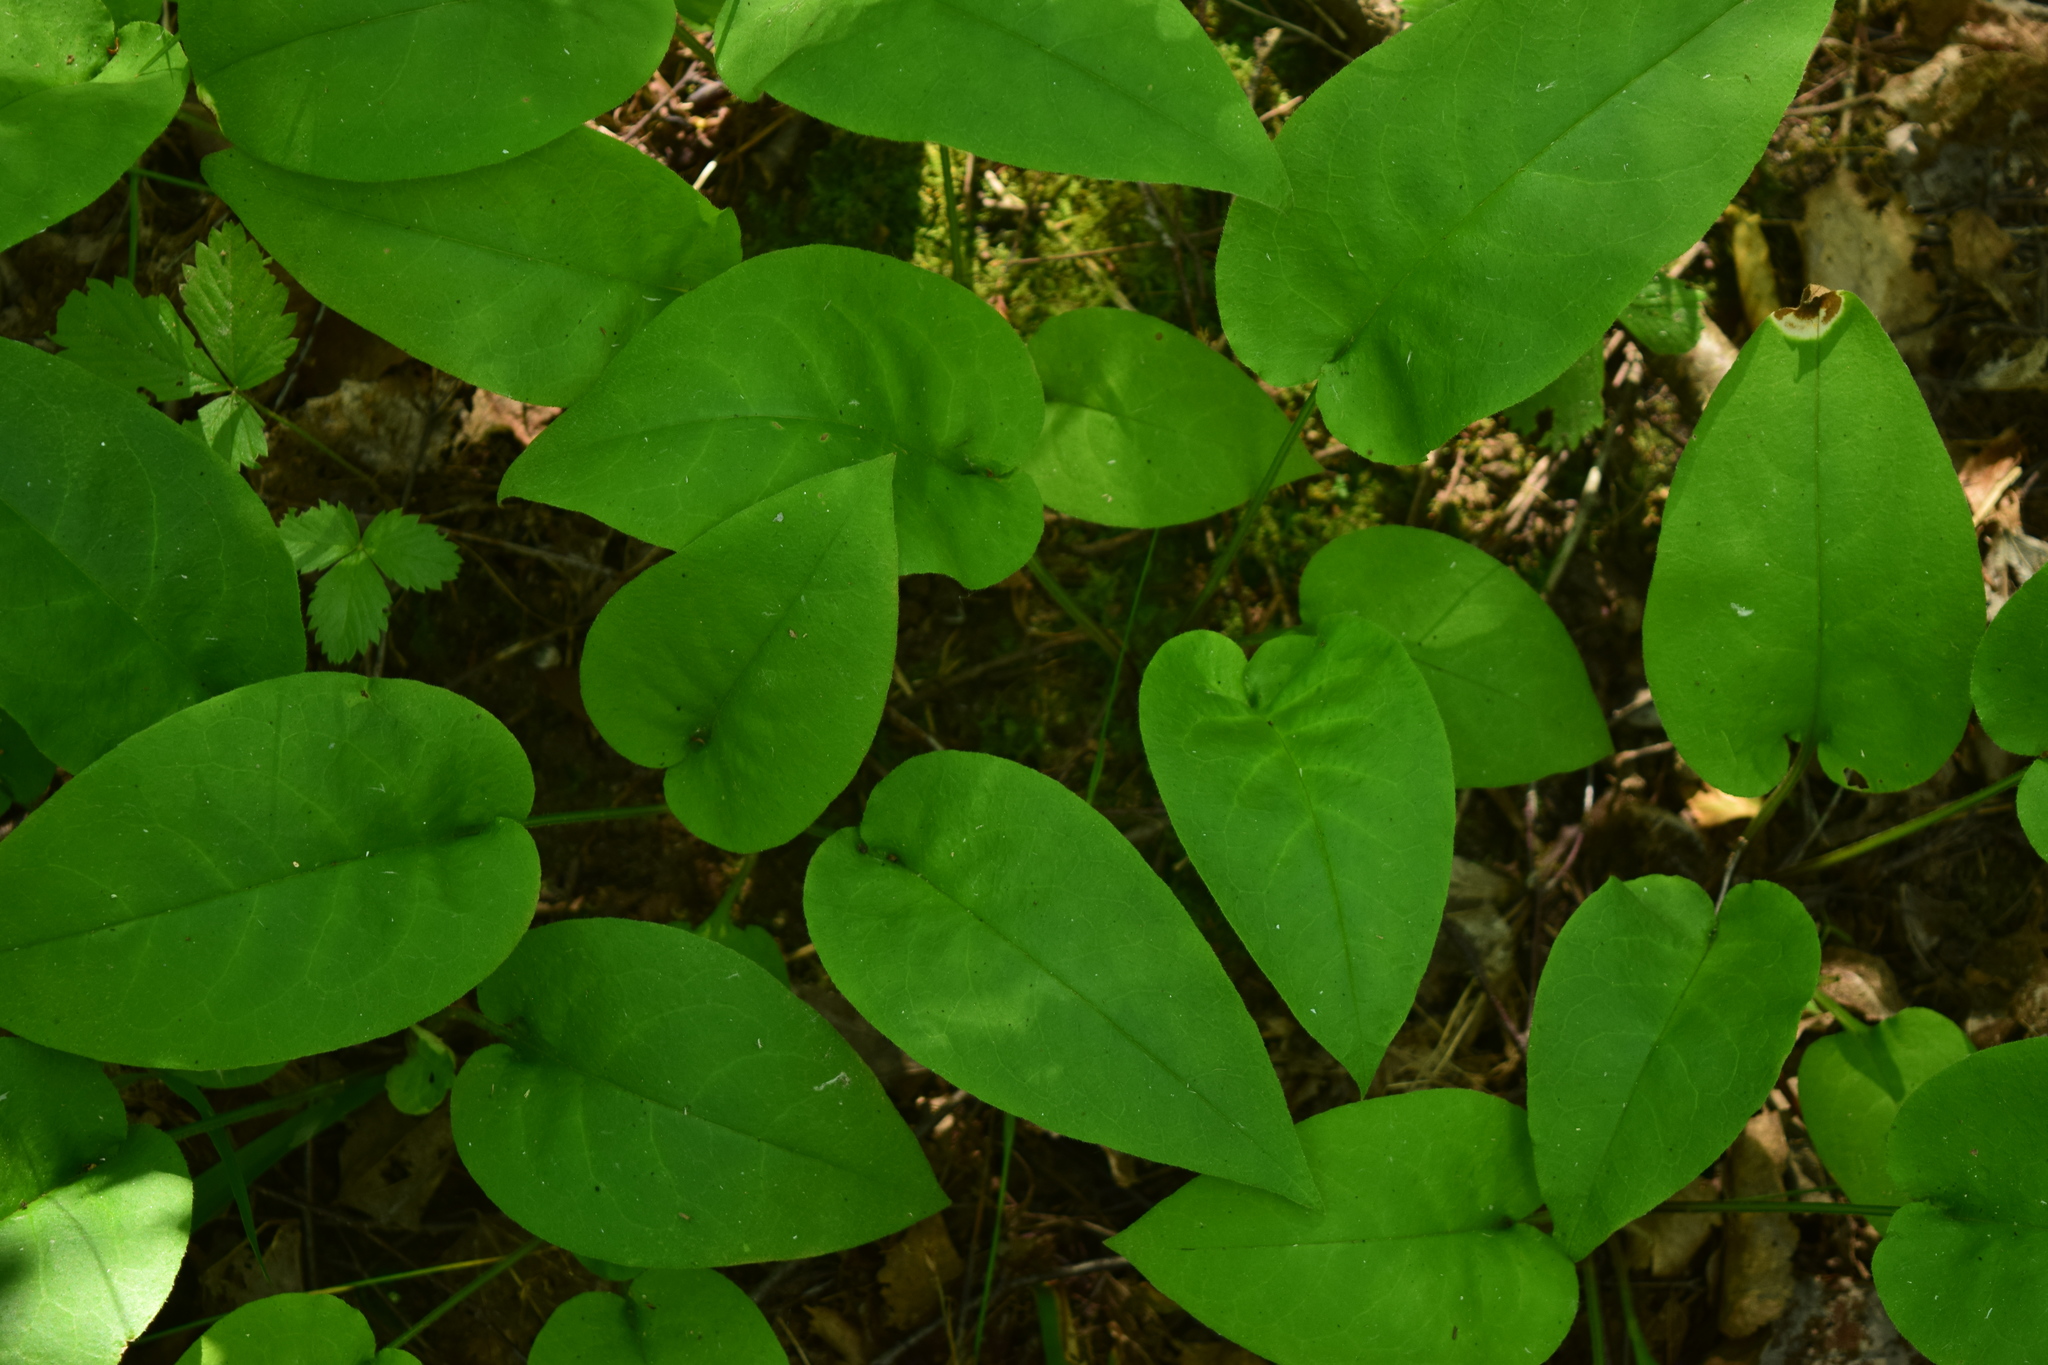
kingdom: Plantae
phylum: Tracheophyta
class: Magnoliopsida
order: Boraginales
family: Boraginaceae
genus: Pulmonaria
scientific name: Pulmonaria obscura
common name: Suffolk lungwort
